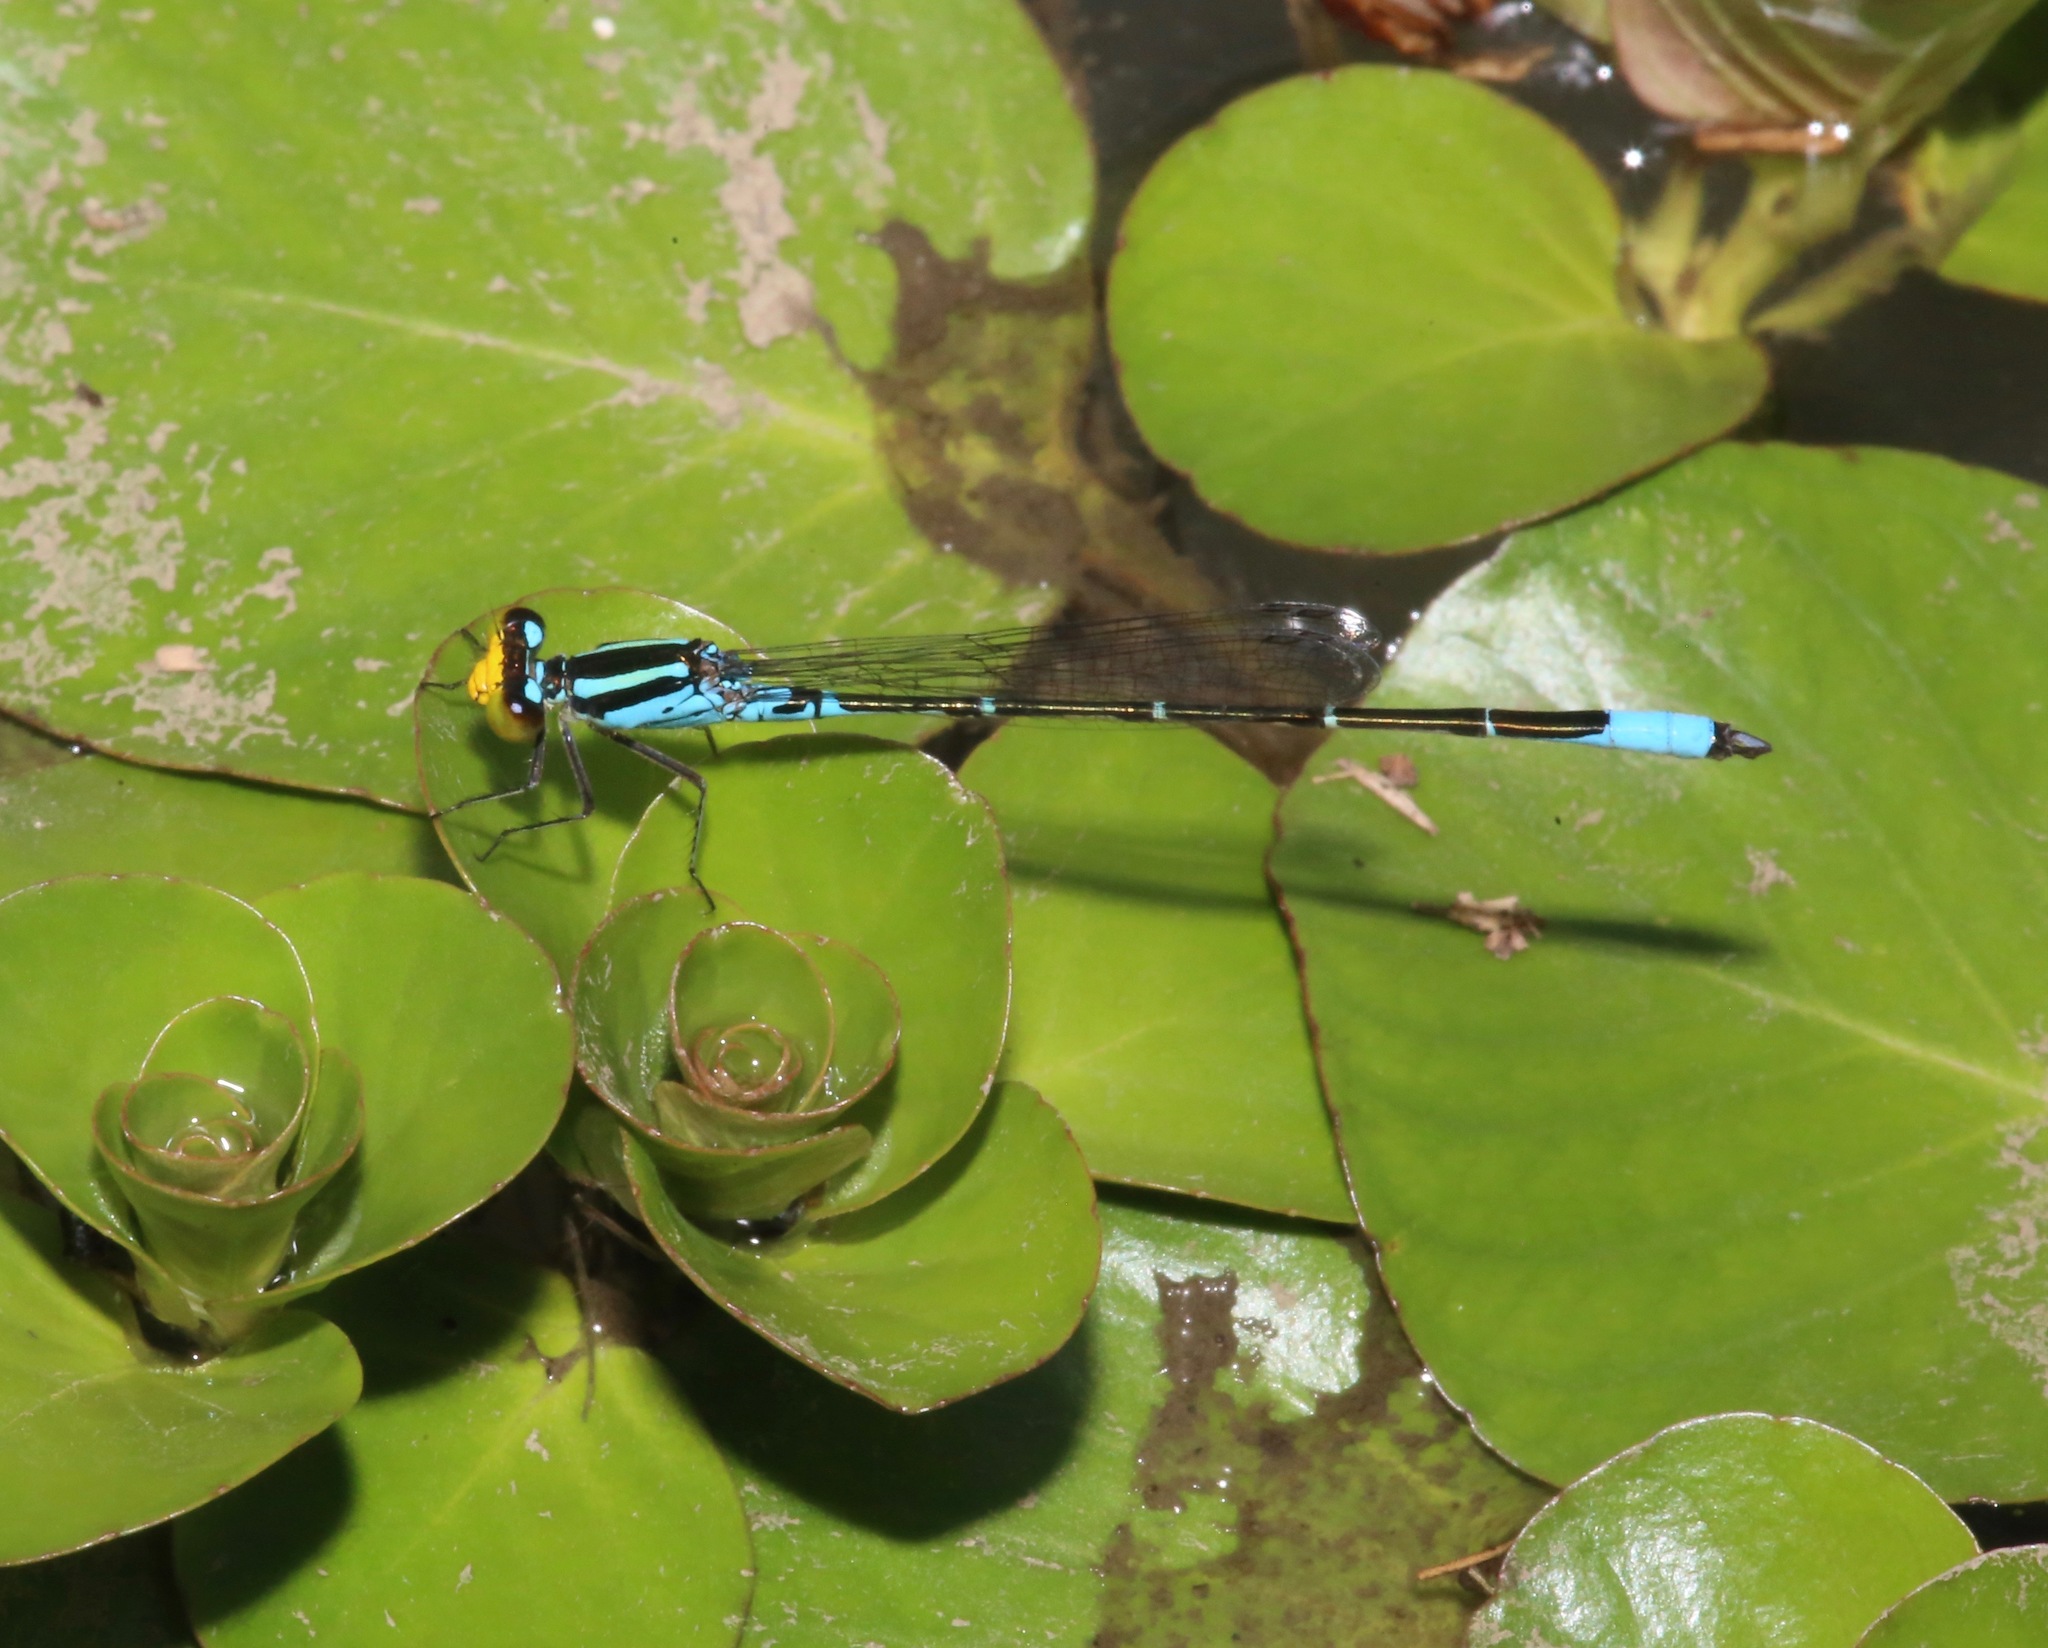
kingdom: Animalia
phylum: Arthropoda
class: Insecta
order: Odonata
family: Coenagrionidae
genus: Neoerythromma
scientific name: Neoerythromma cultellatum
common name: Caribbean yellowface
